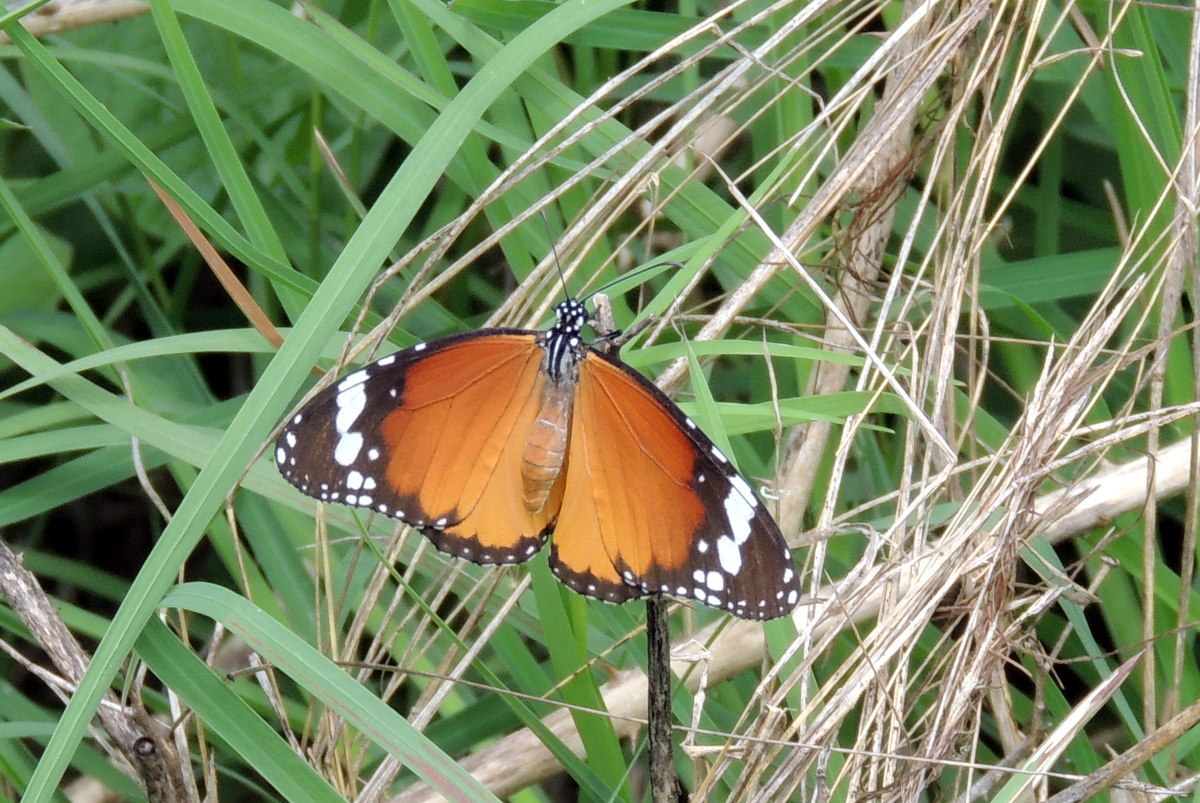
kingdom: Animalia
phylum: Arthropoda
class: Insecta
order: Lepidoptera
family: Nymphalidae
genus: Danaus
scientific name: Danaus chrysippus
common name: Plain tiger
